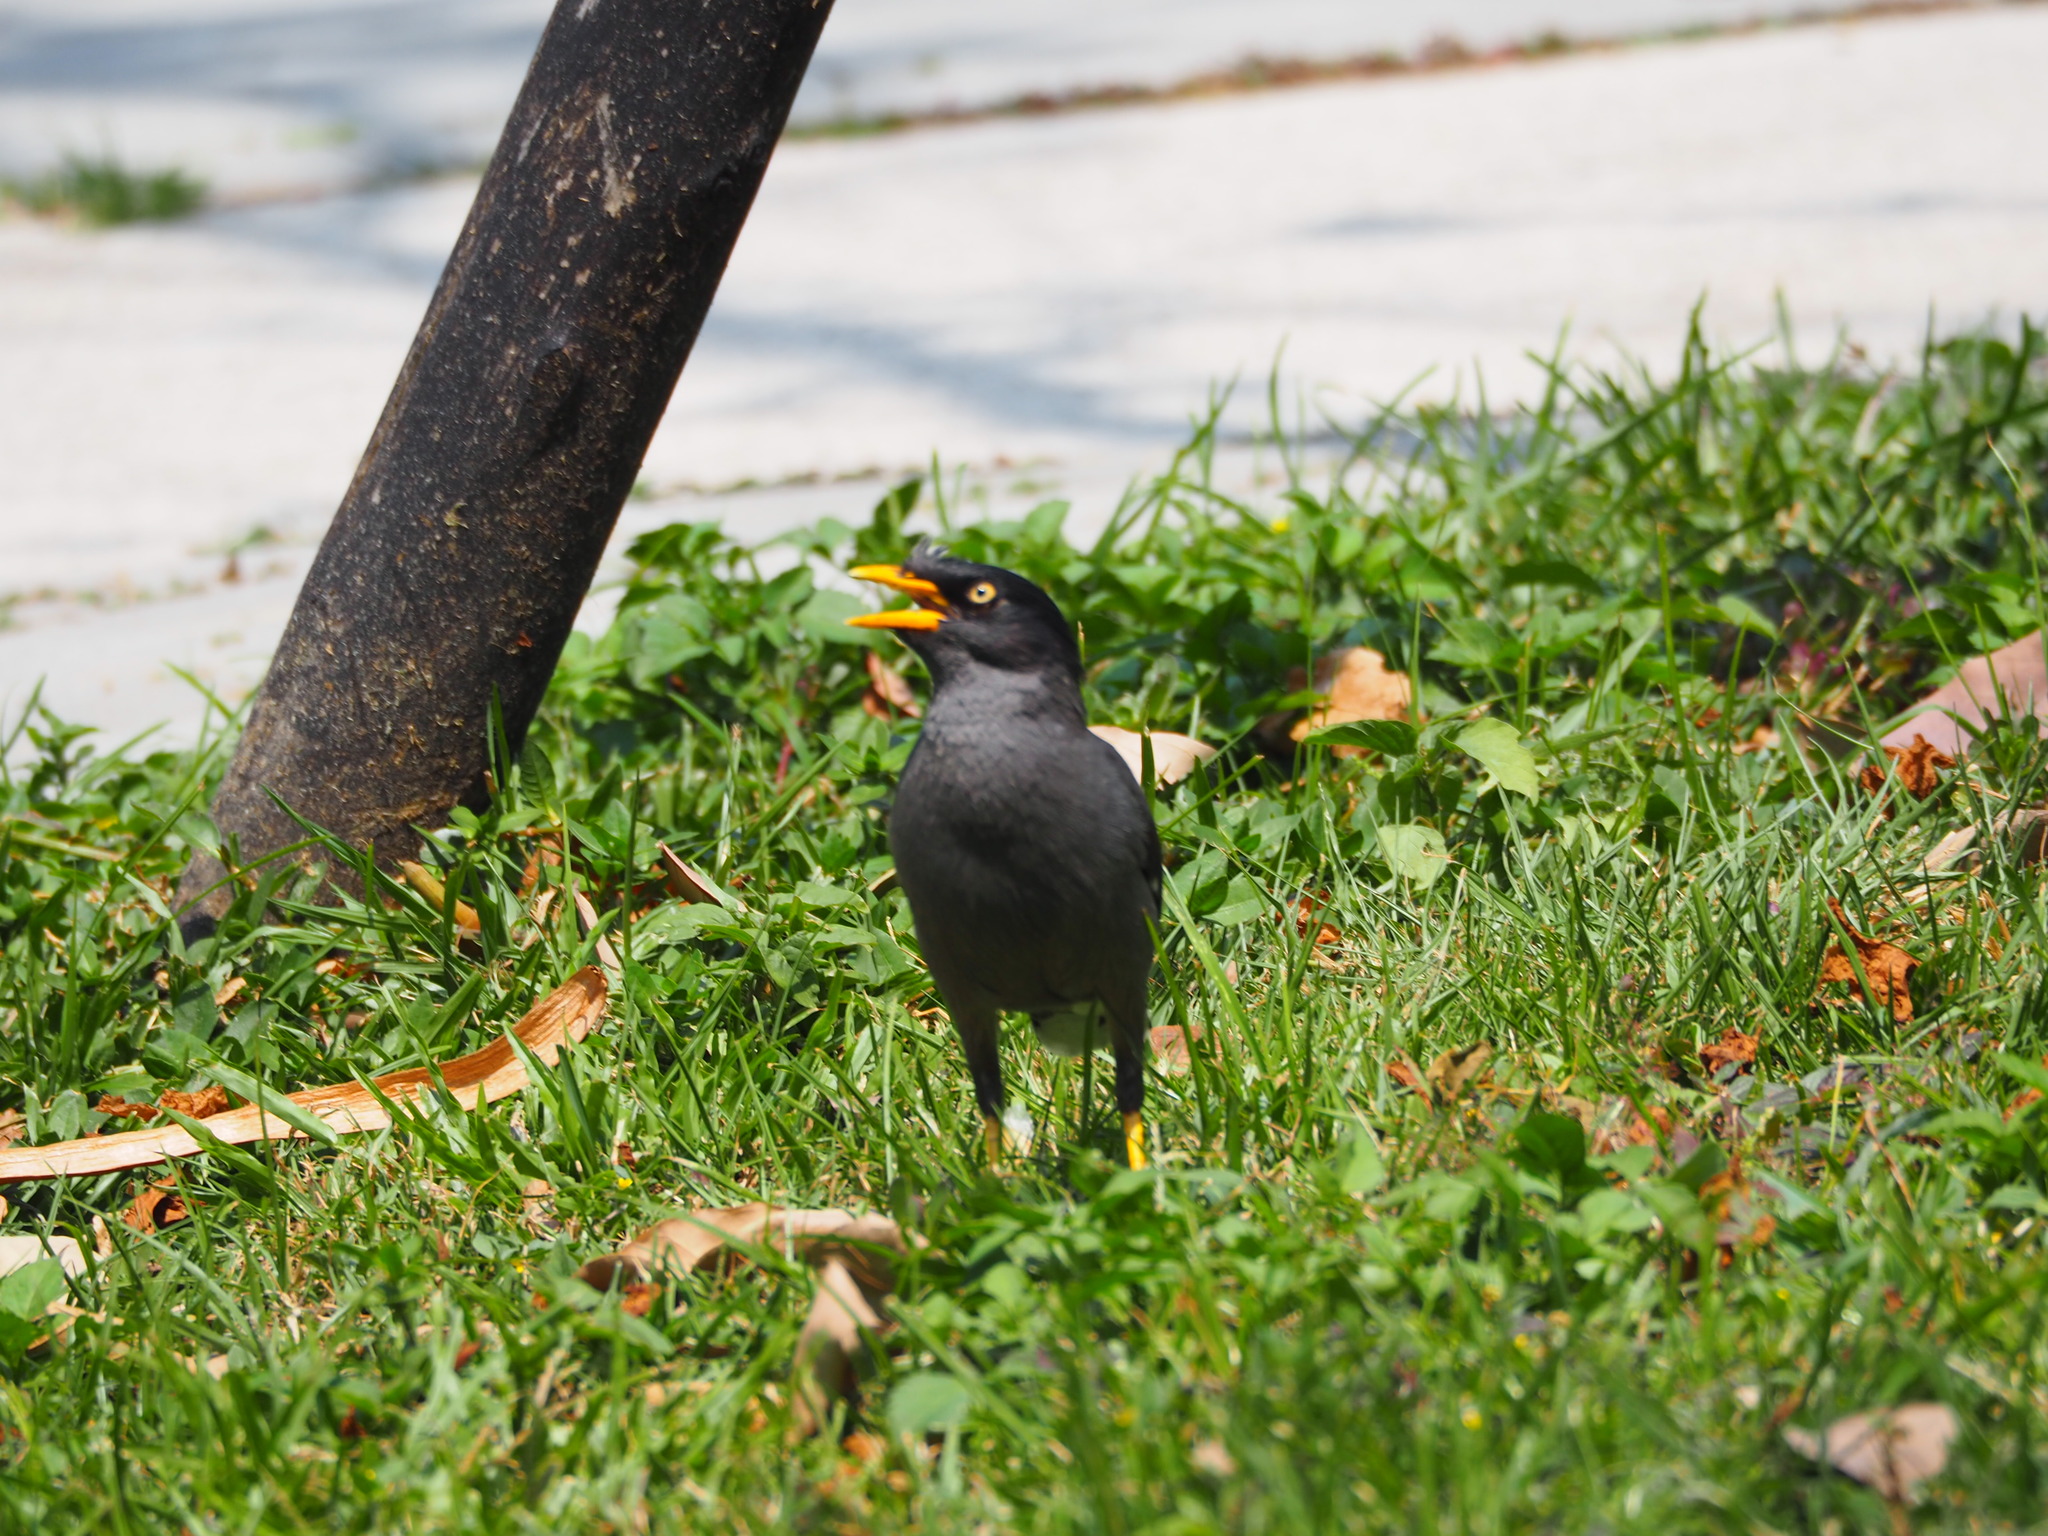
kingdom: Animalia
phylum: Chordata
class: Aves
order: Passeriformes
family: Sturnidae
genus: Acridotheres
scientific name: Acridotheres javanicus
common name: Javan myna
